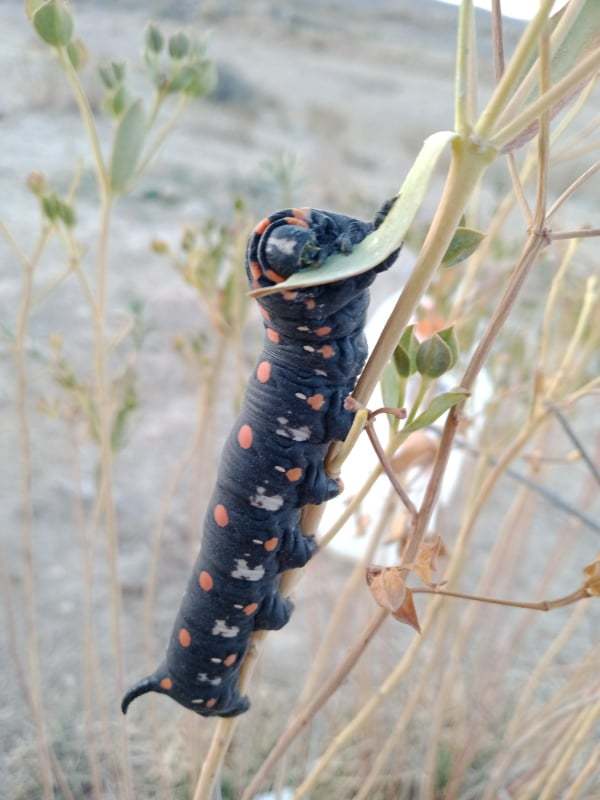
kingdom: Animalia
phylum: Arthropoda
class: Insecta
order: Lepidoptera
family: Sphingidae
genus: Hyles
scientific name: Hyles nicaea
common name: Mediterranean hawk-moth
